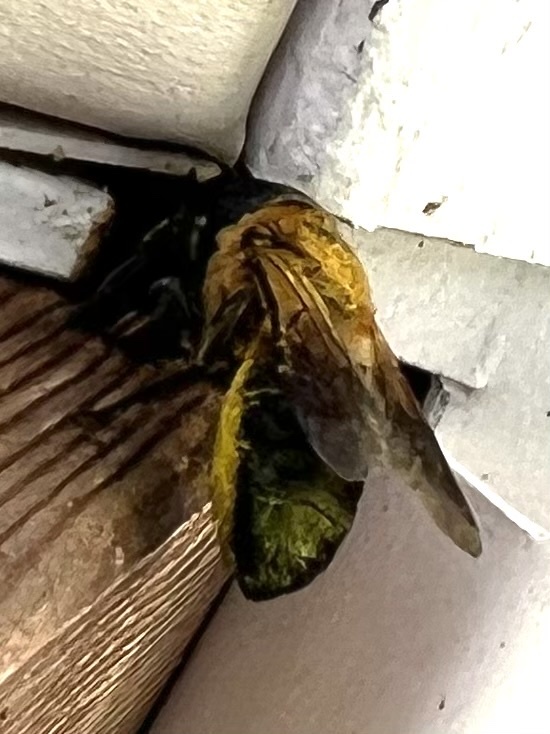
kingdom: Animalia
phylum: Arthropoda
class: Insecta
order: Hymenoptera
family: Megachilidae
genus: Megachile
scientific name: Megachile sculpturalis
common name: Sculptured resin bee
